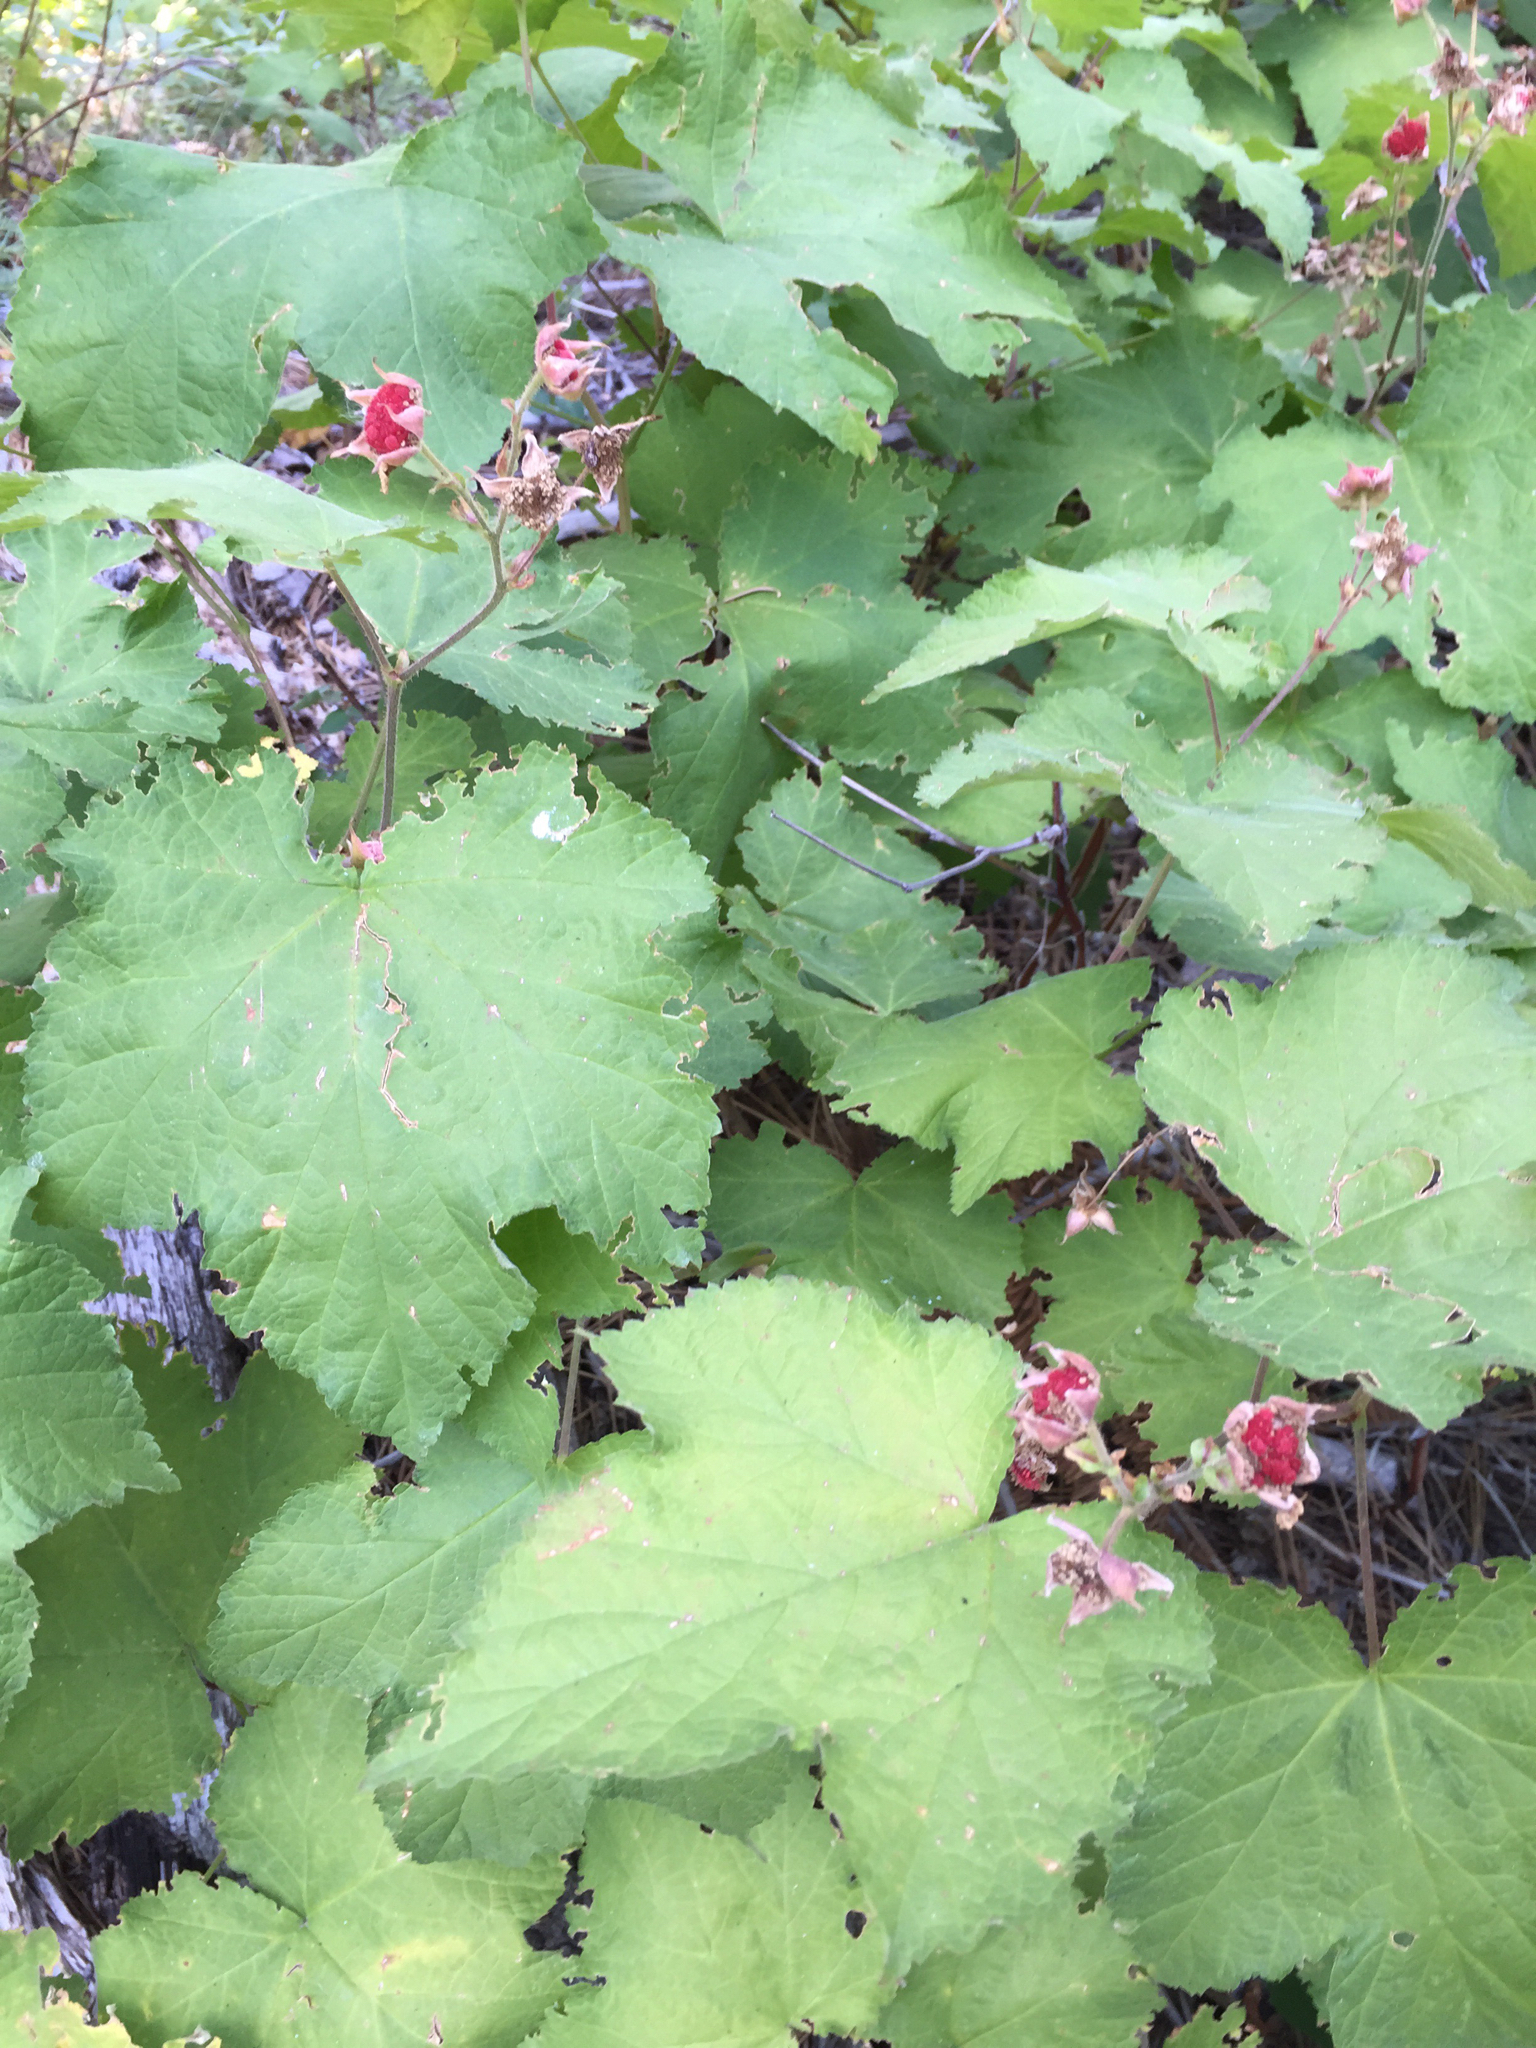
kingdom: Plantae
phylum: Tracheophyta
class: Magnoliopsida
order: Rosales
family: Rosaceae
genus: Rubus
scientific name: Rubus parviflorus
